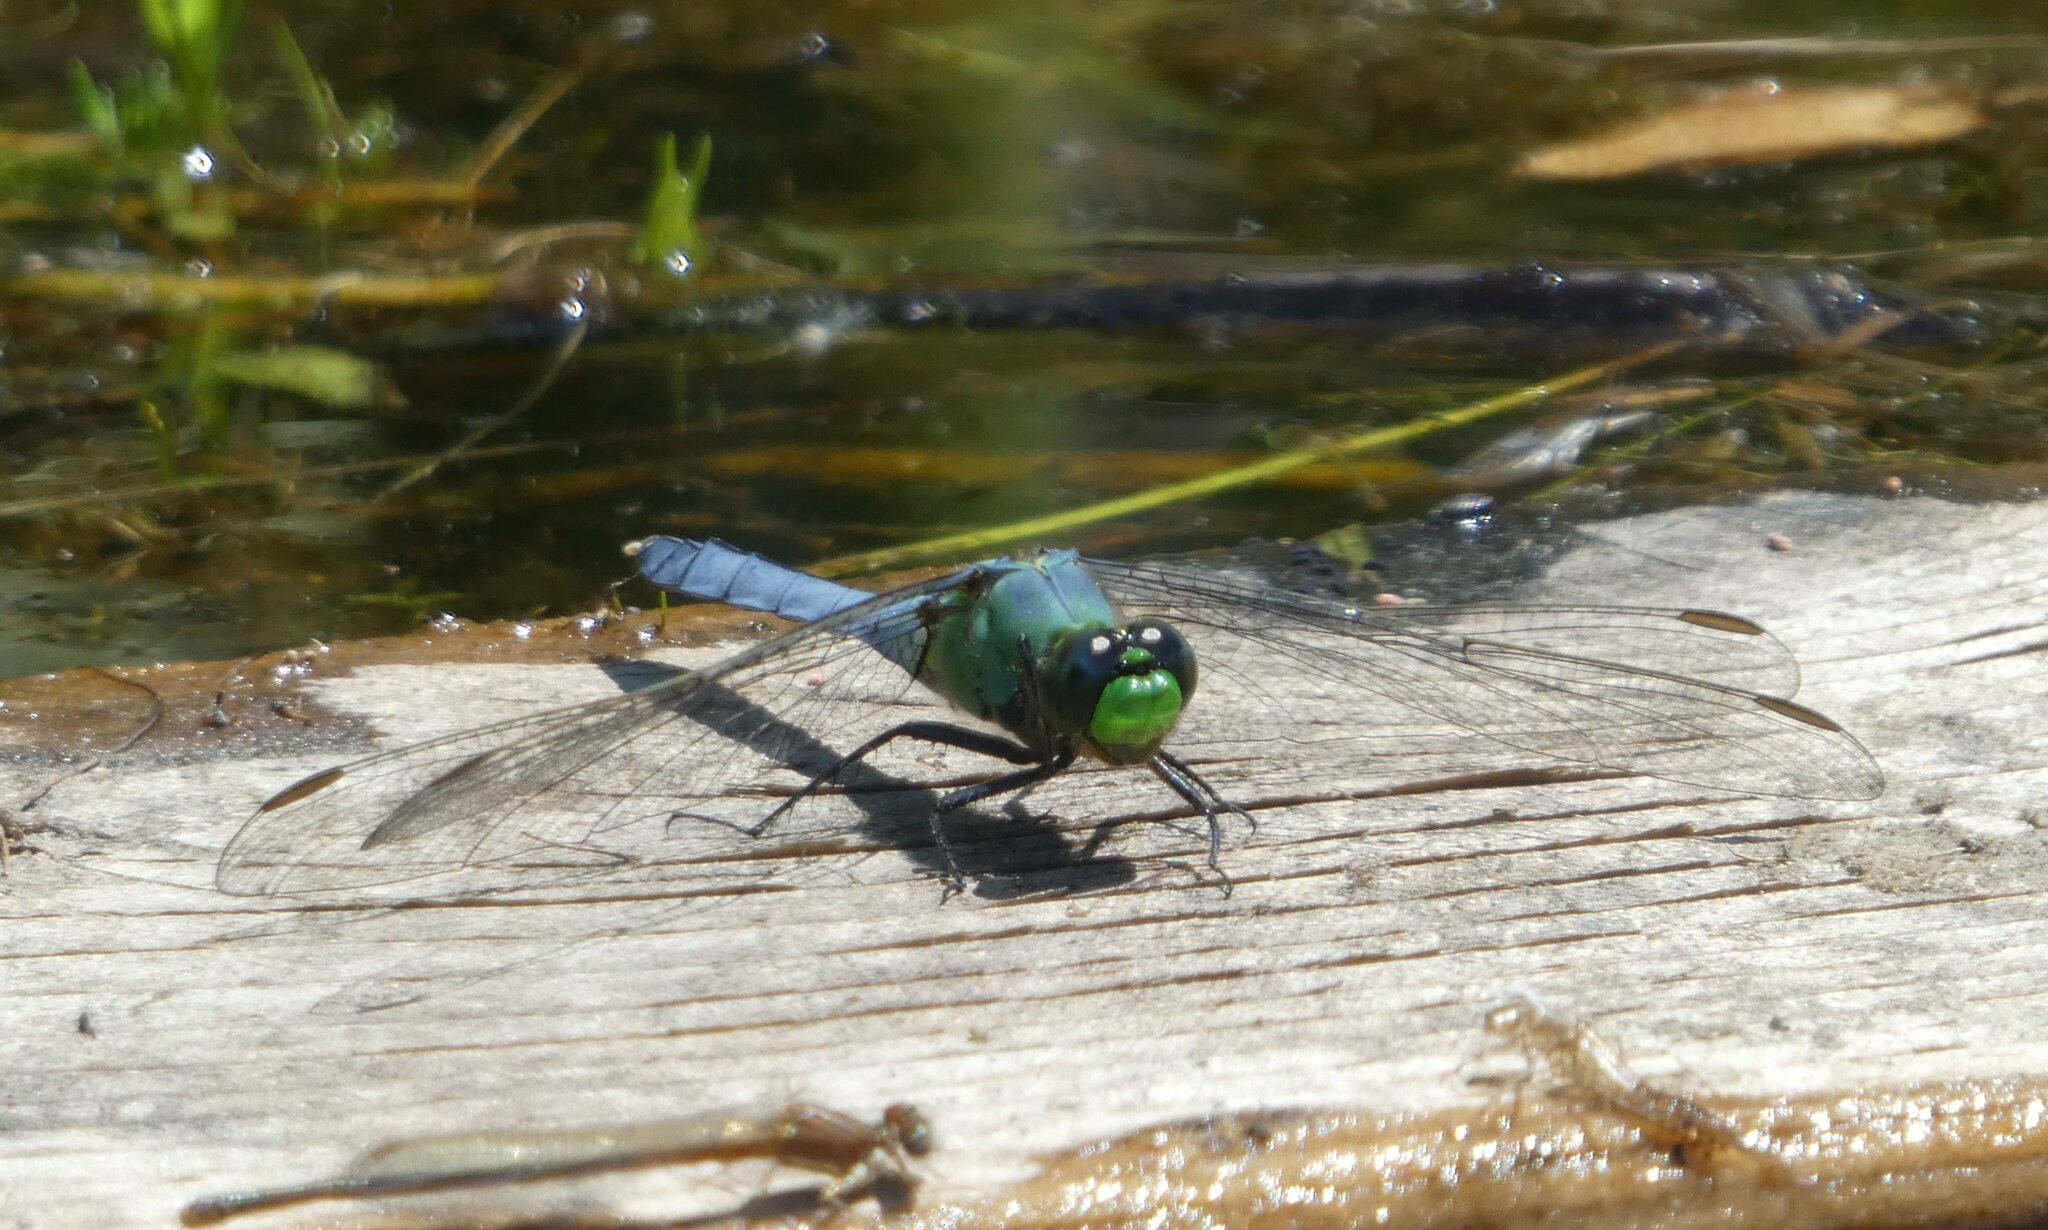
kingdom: Animalia
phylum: Arthropoda
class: Insecta
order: Odonata
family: Libellulidae
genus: Erythemis
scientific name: Erythemis simplicicollis
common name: Eastern pondhawk
